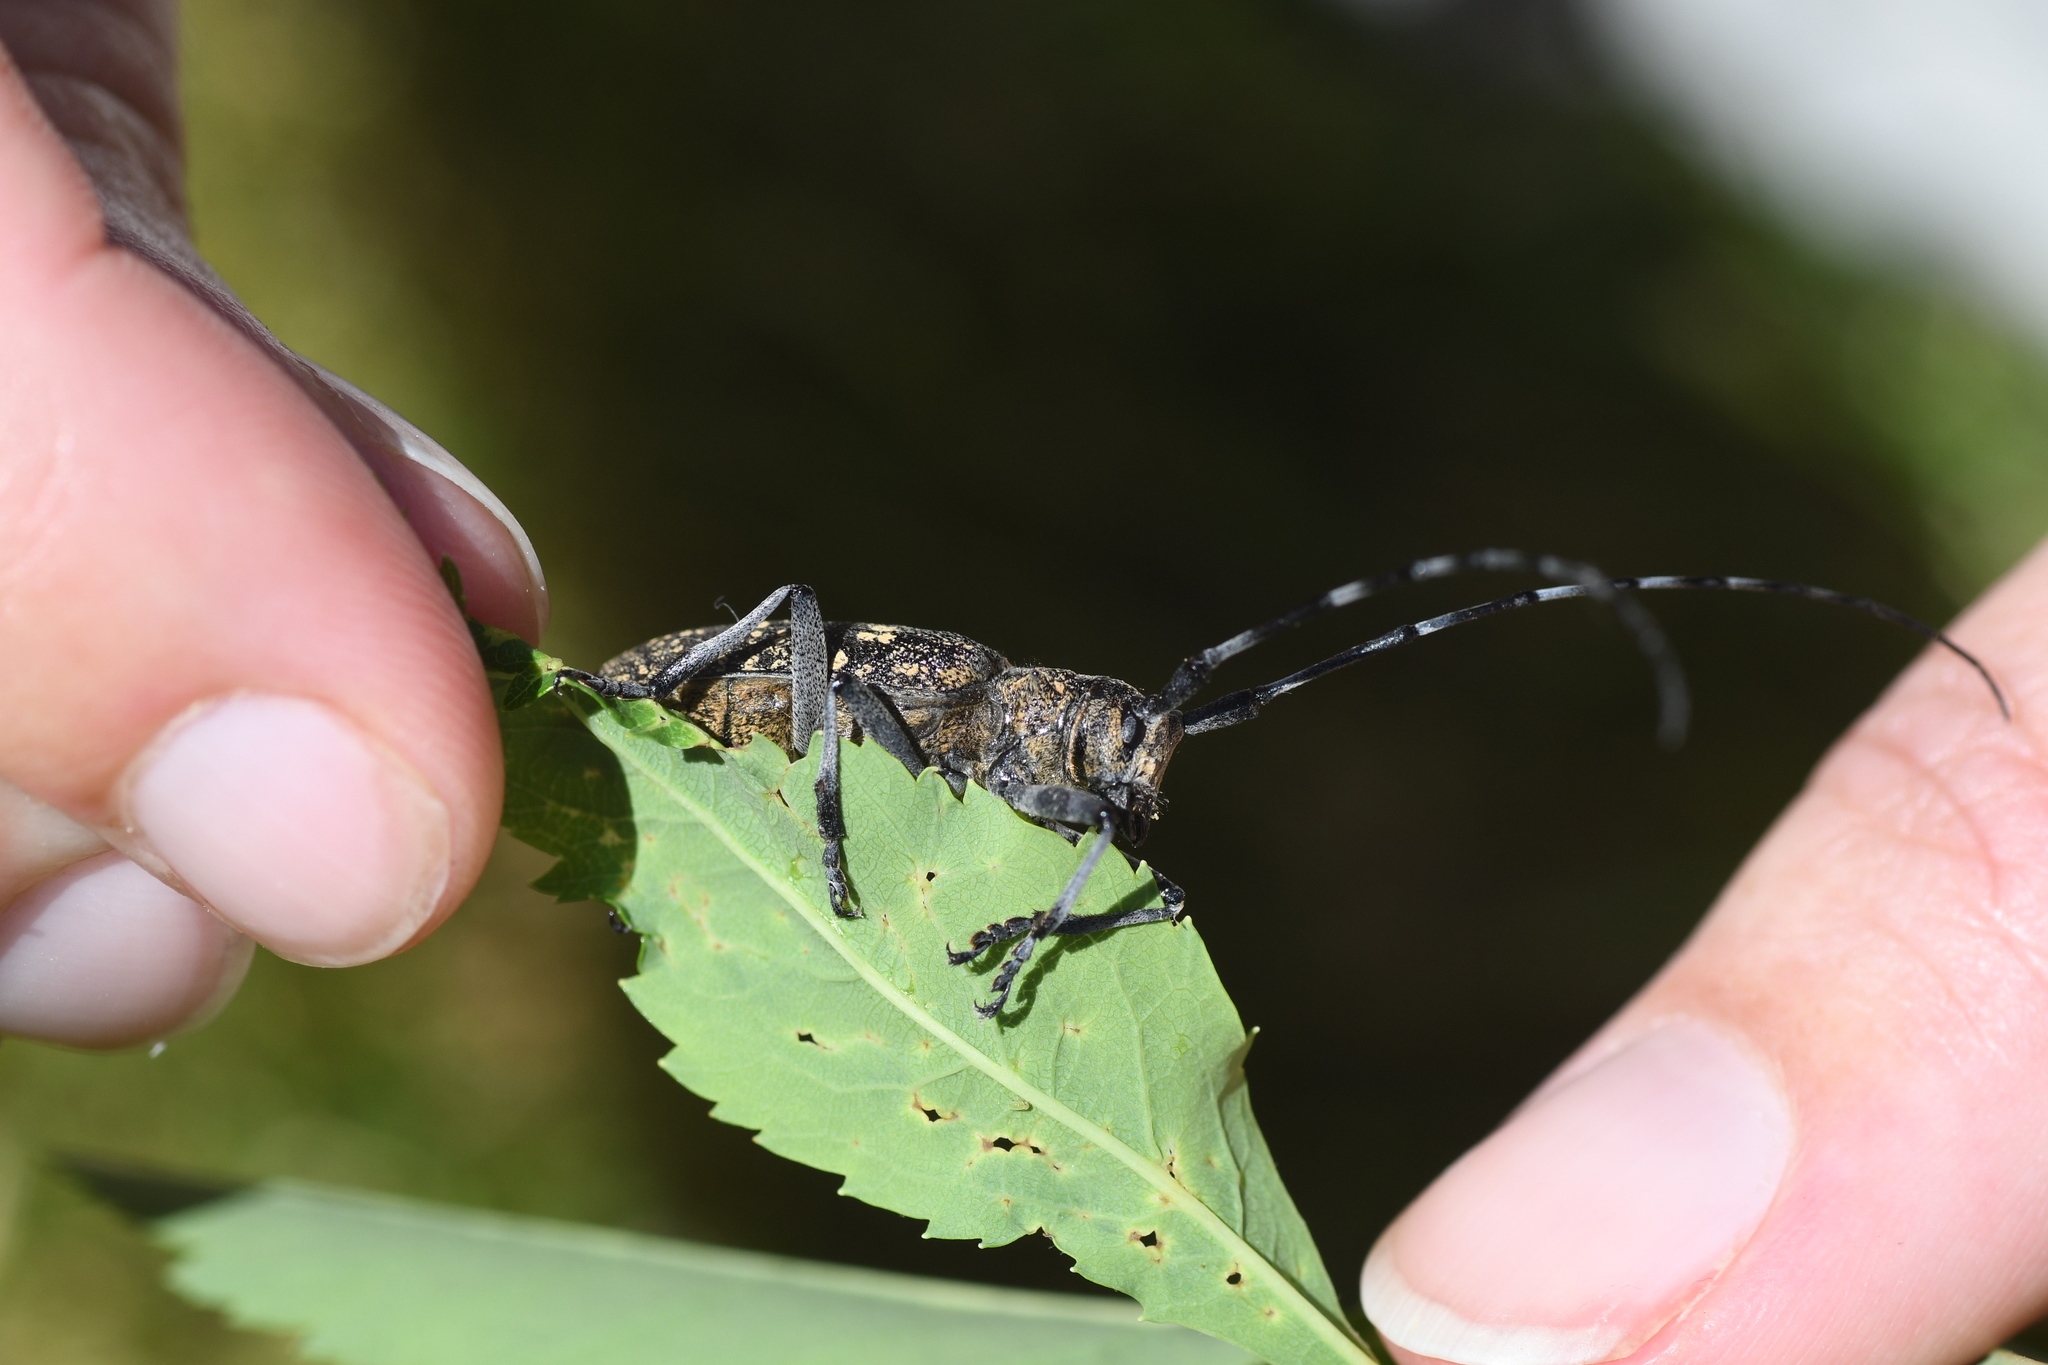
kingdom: Animalia
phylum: Arthropoda
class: Insecta
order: Coleoptera
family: Cerambycidae
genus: Monochamus
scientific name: Monochamus sutor
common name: Pine sawyer
